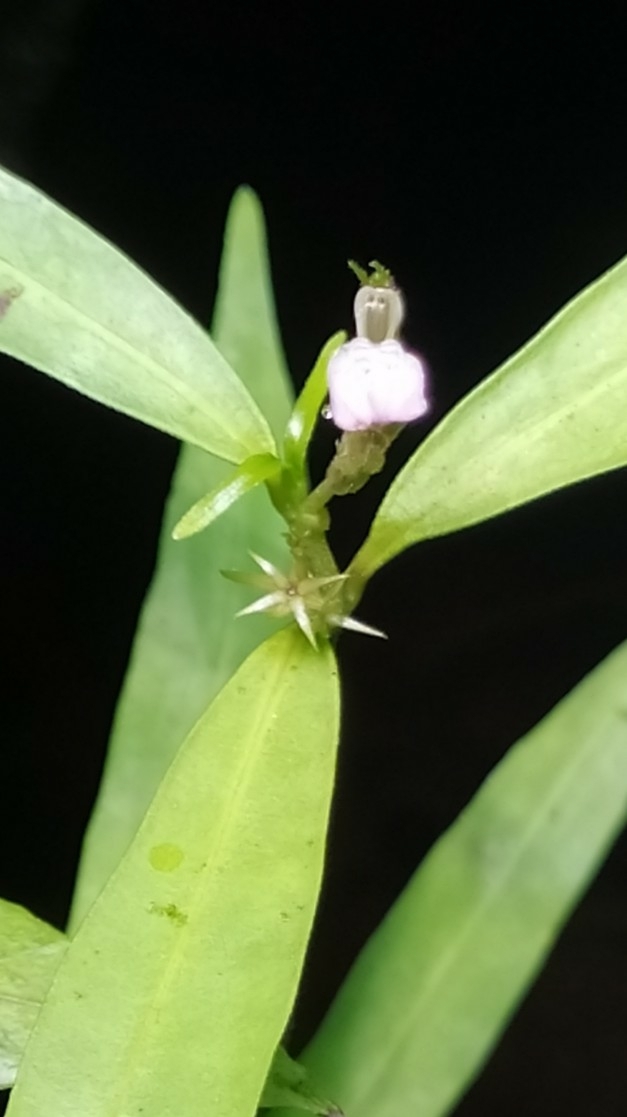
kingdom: Plantae
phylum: Tracheophyta
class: Magnoliopsida
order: Lamiales
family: Acanthaceae
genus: Justicia
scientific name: Justicia potarensis
